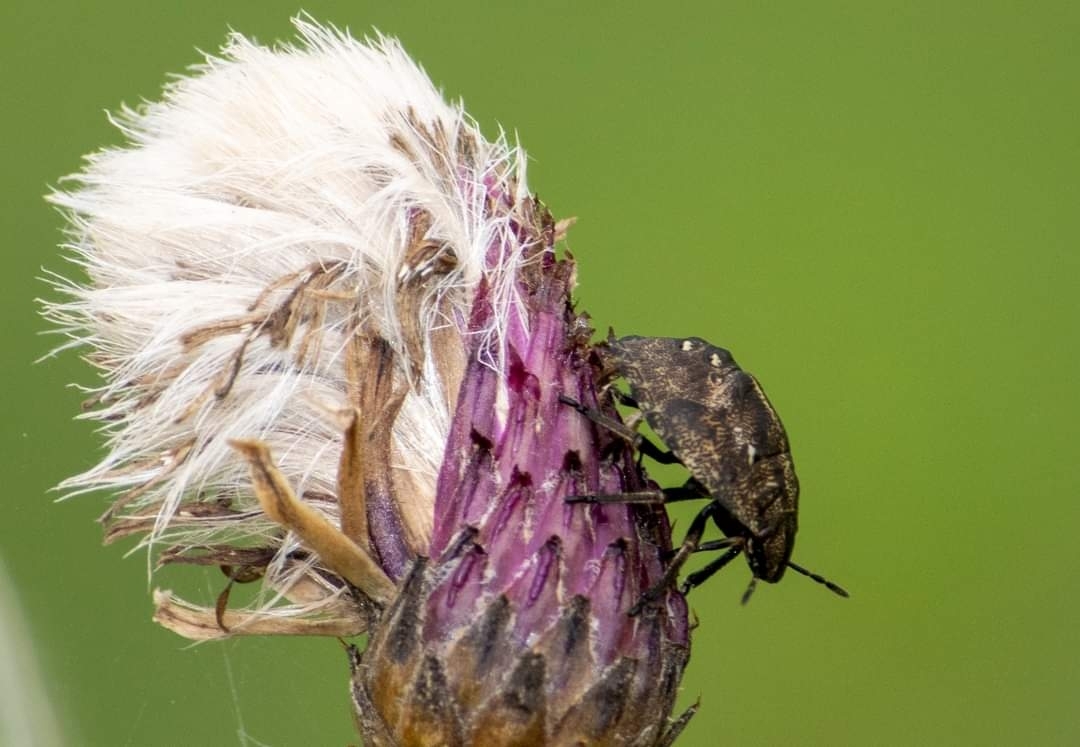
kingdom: Animalia
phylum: Arthropoda
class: Insecta
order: Hemiptera
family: Scutelleridae
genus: Eurygaster
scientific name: Eurygaster testudinaria
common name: Tortoise bug
